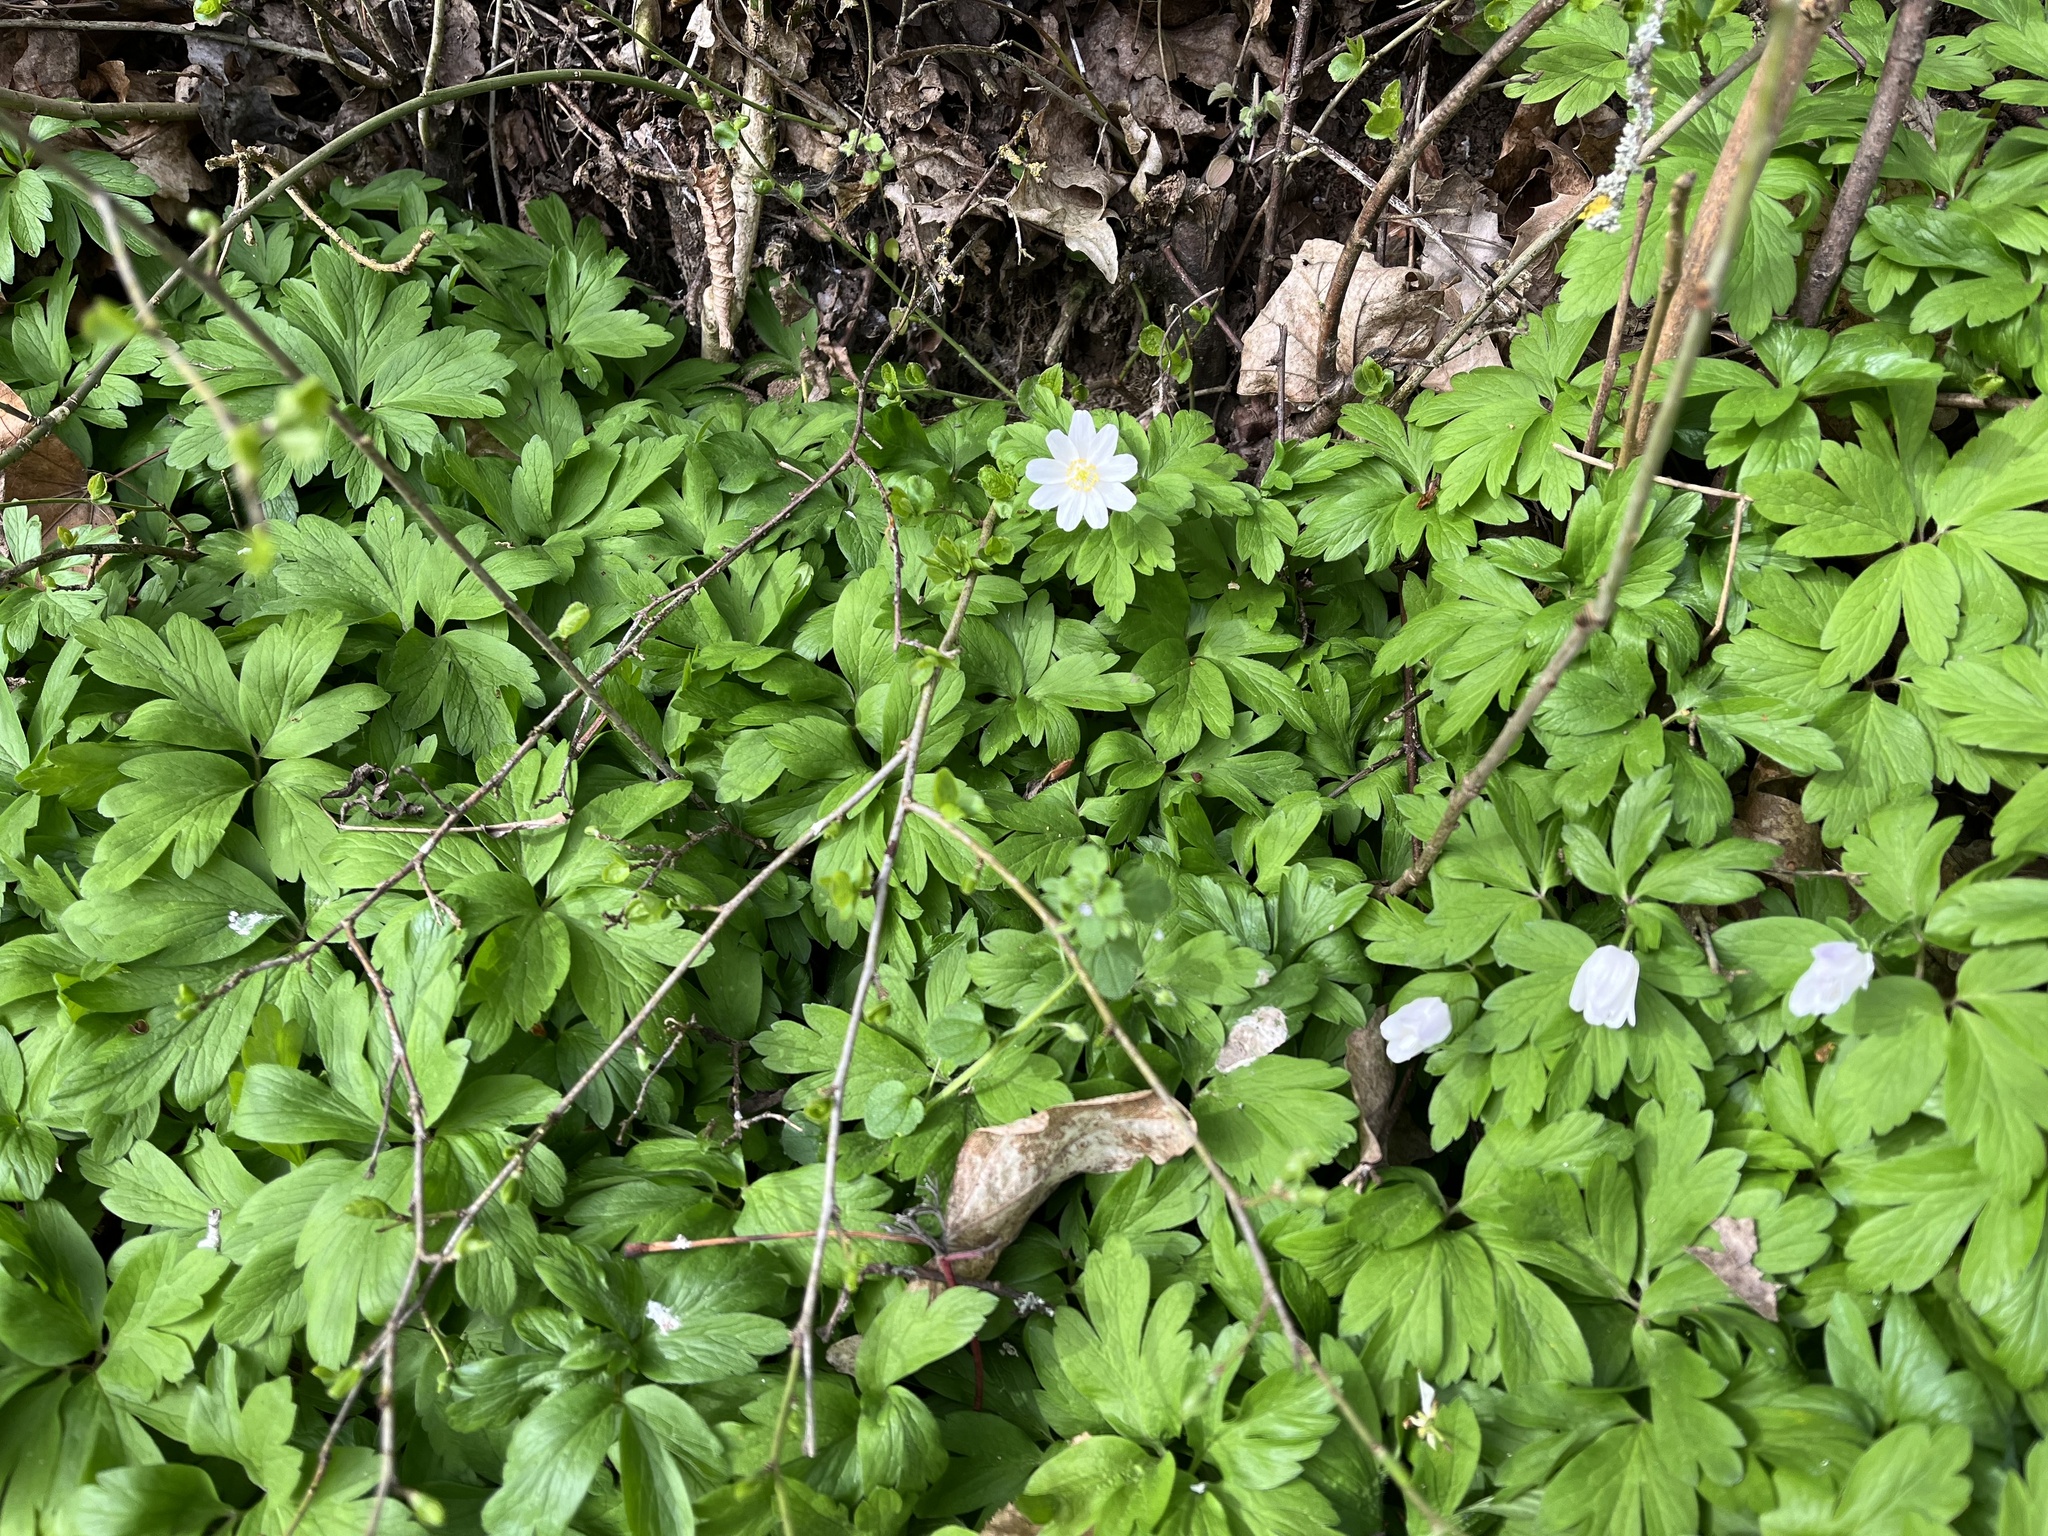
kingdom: Plantae
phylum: Tracheophyta
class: Magnoliopsida
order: Ranunculales
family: Ranunculaceae
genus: Anemone
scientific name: Anemone nemorosa
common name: Wood anemone
